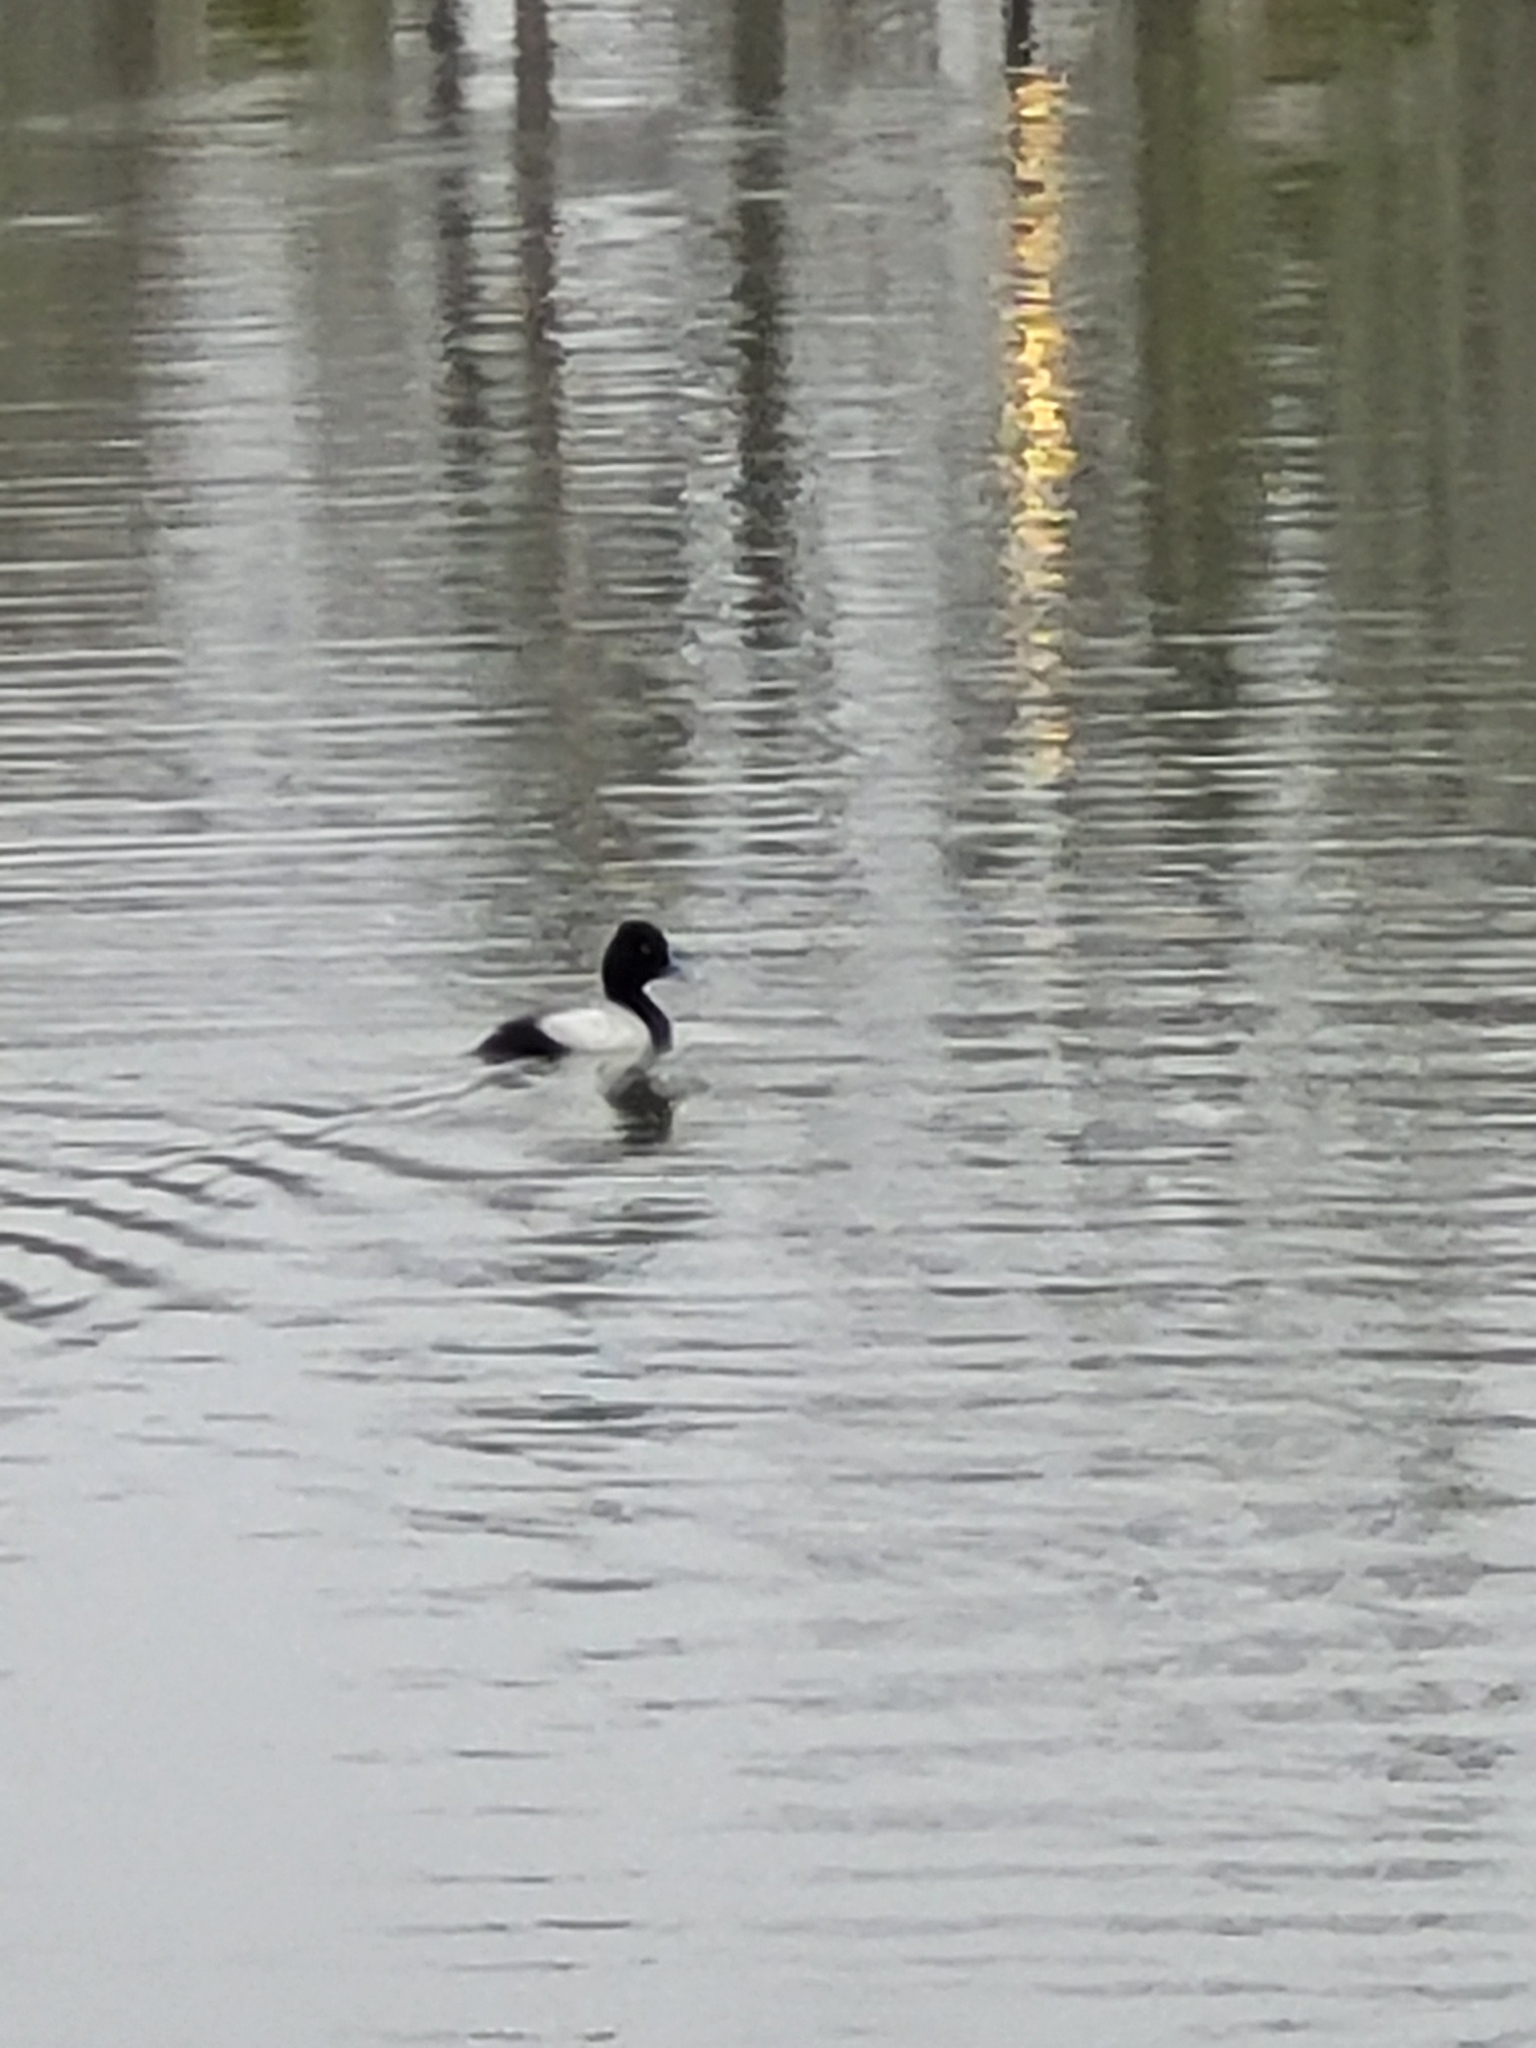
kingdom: Animalia
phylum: Chordata
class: Aves
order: Anseriformes
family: Anatidae
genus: Aythya
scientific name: Aythya affinis
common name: Lesser scaup
